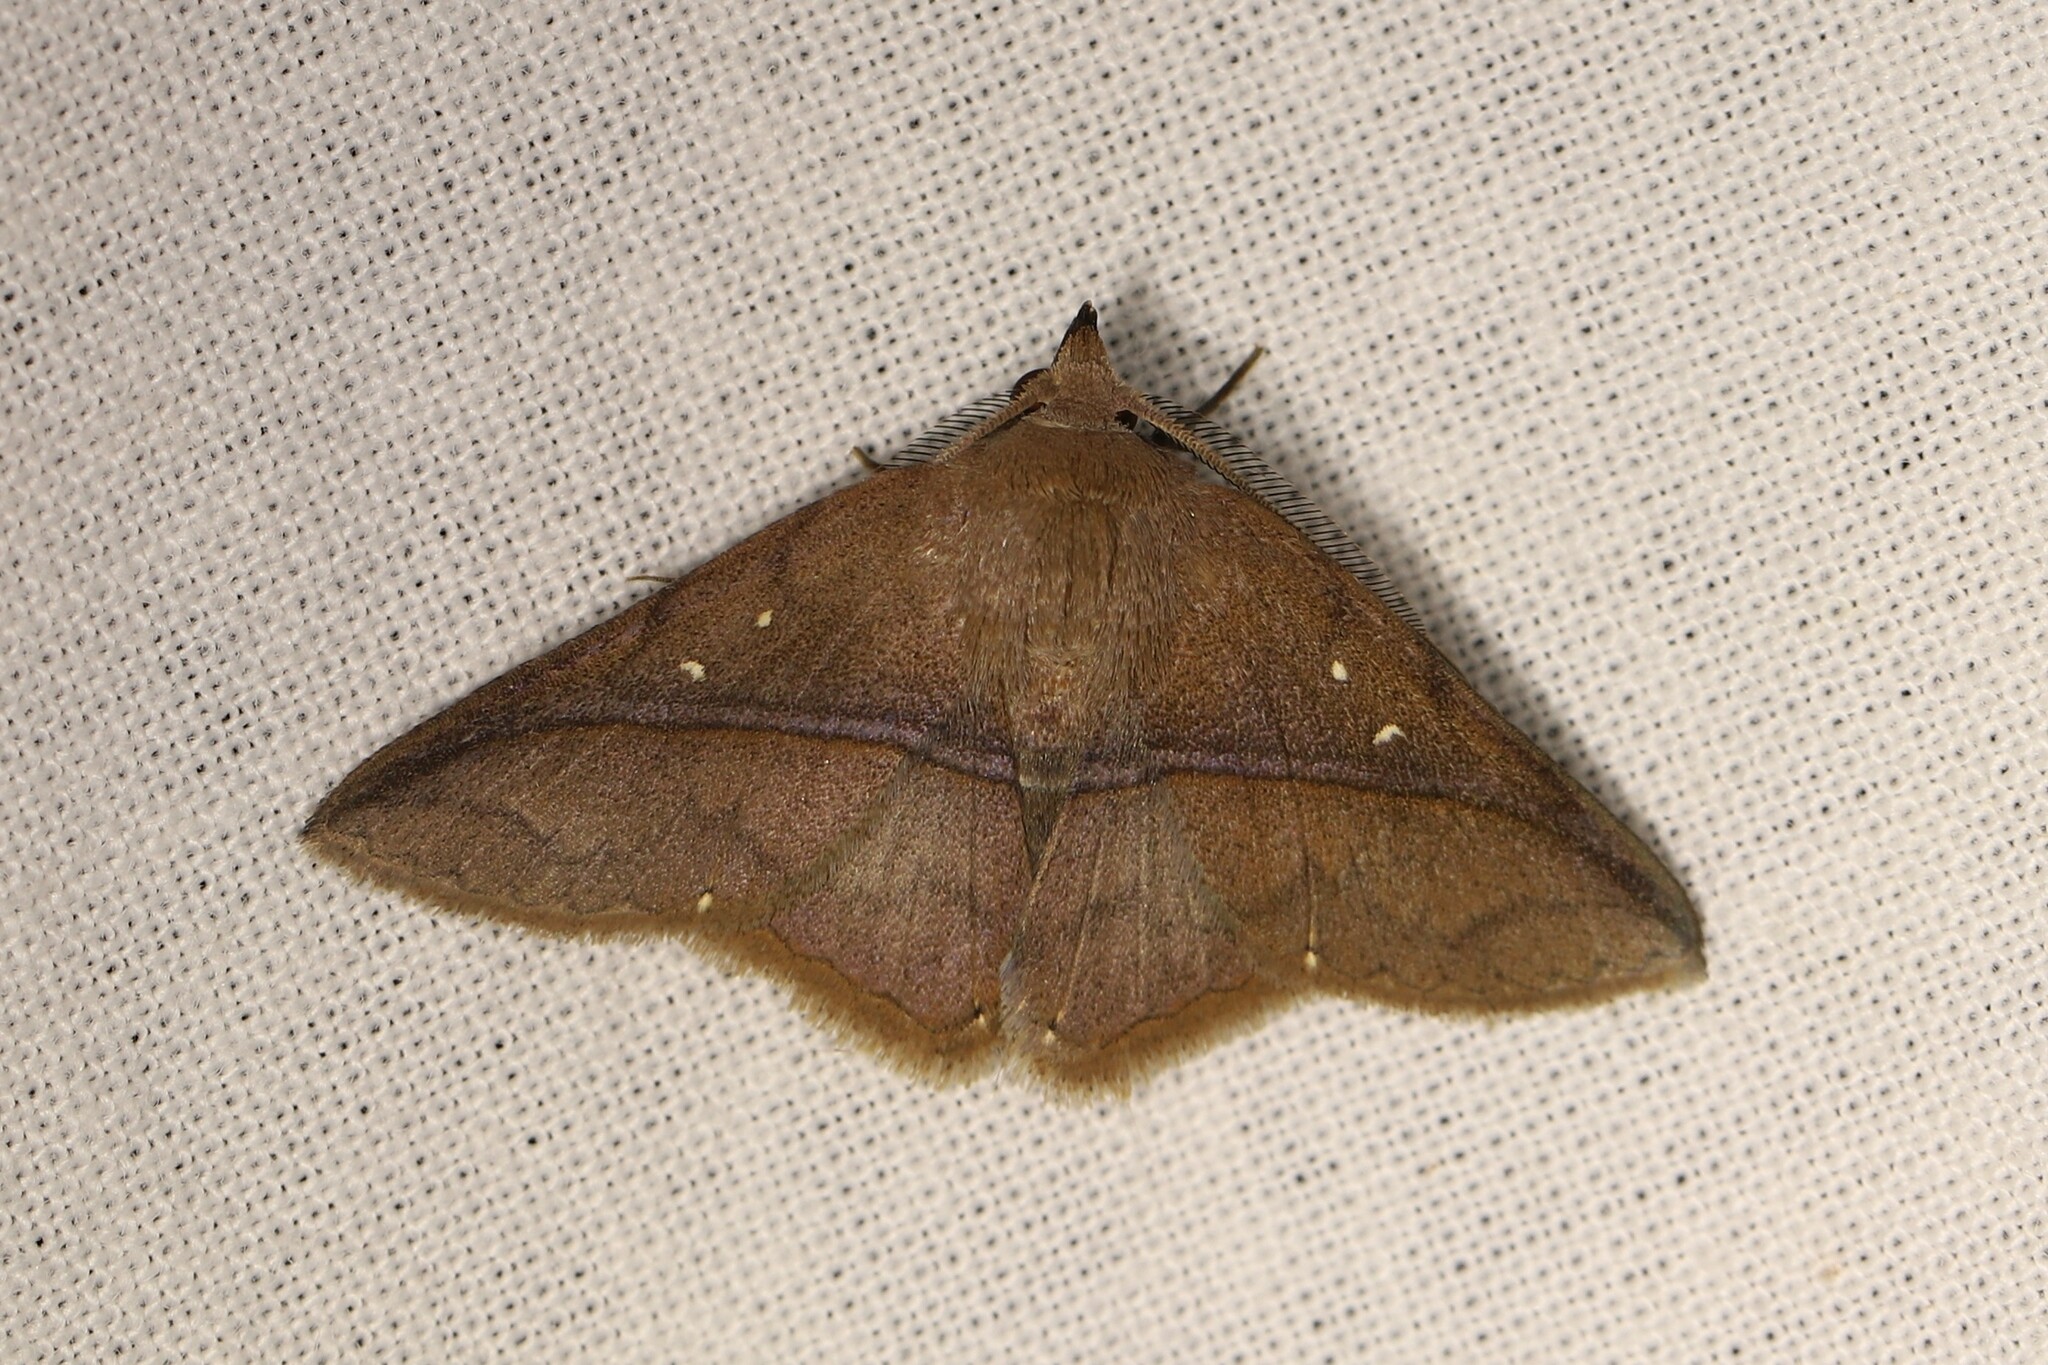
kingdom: Animalia
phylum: Arthropoda
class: Insecta
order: Lepidoptera
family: Erebidae
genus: Metaprosphera
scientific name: Metaprosphera sublimpida
